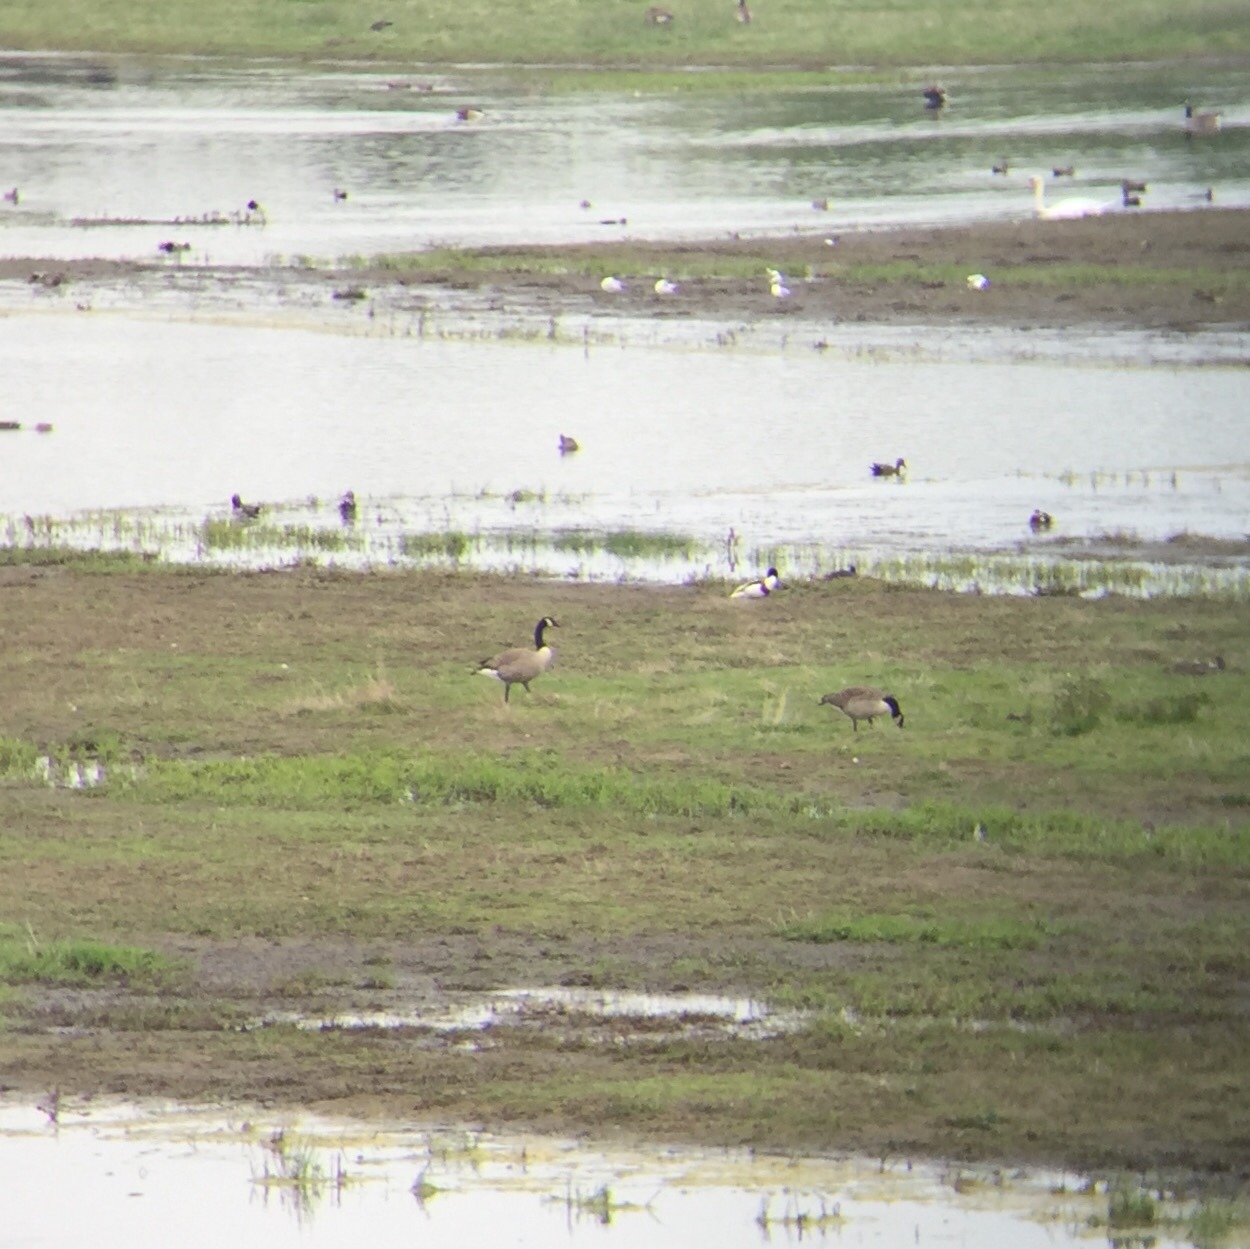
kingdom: Animalia
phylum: Chordata
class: Aves
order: Anseriformes
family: Anatidae
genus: Branta
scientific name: Branta canadensis
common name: Canada goose
